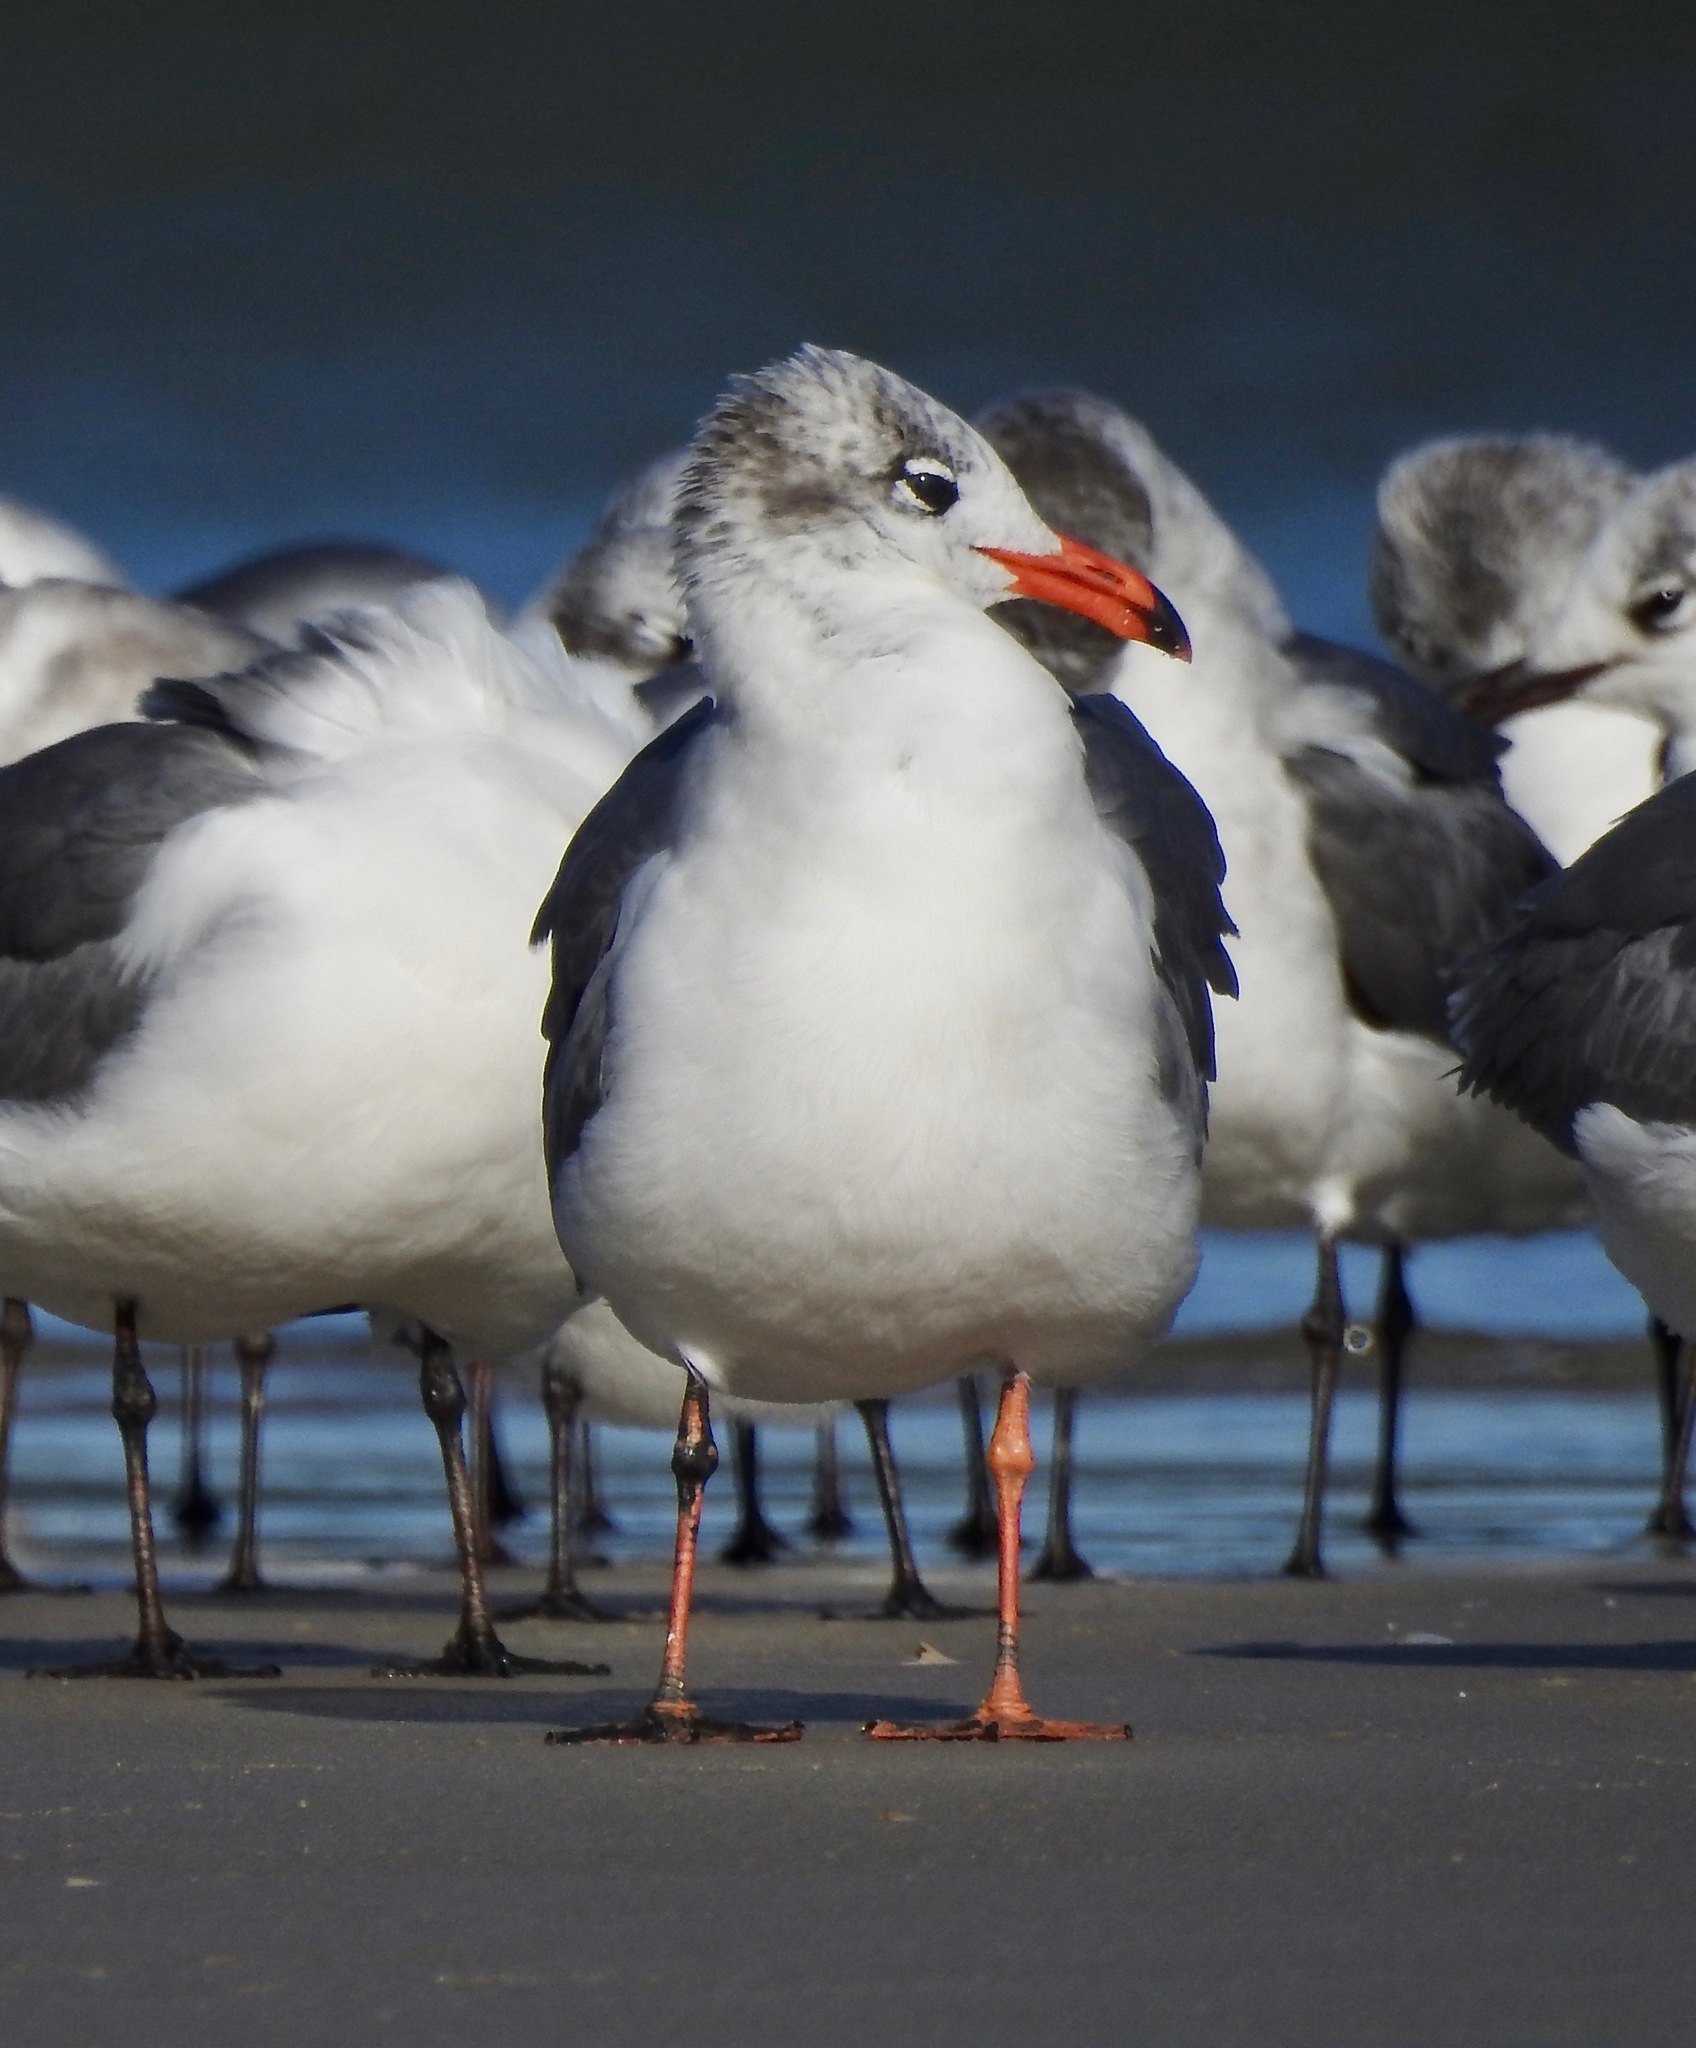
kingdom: Animalia
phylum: Chordata
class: Aves
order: Charadriiformes
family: Laridae
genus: Leucophaeus
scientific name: Leucophaeus atricilla
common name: Laughing gull
